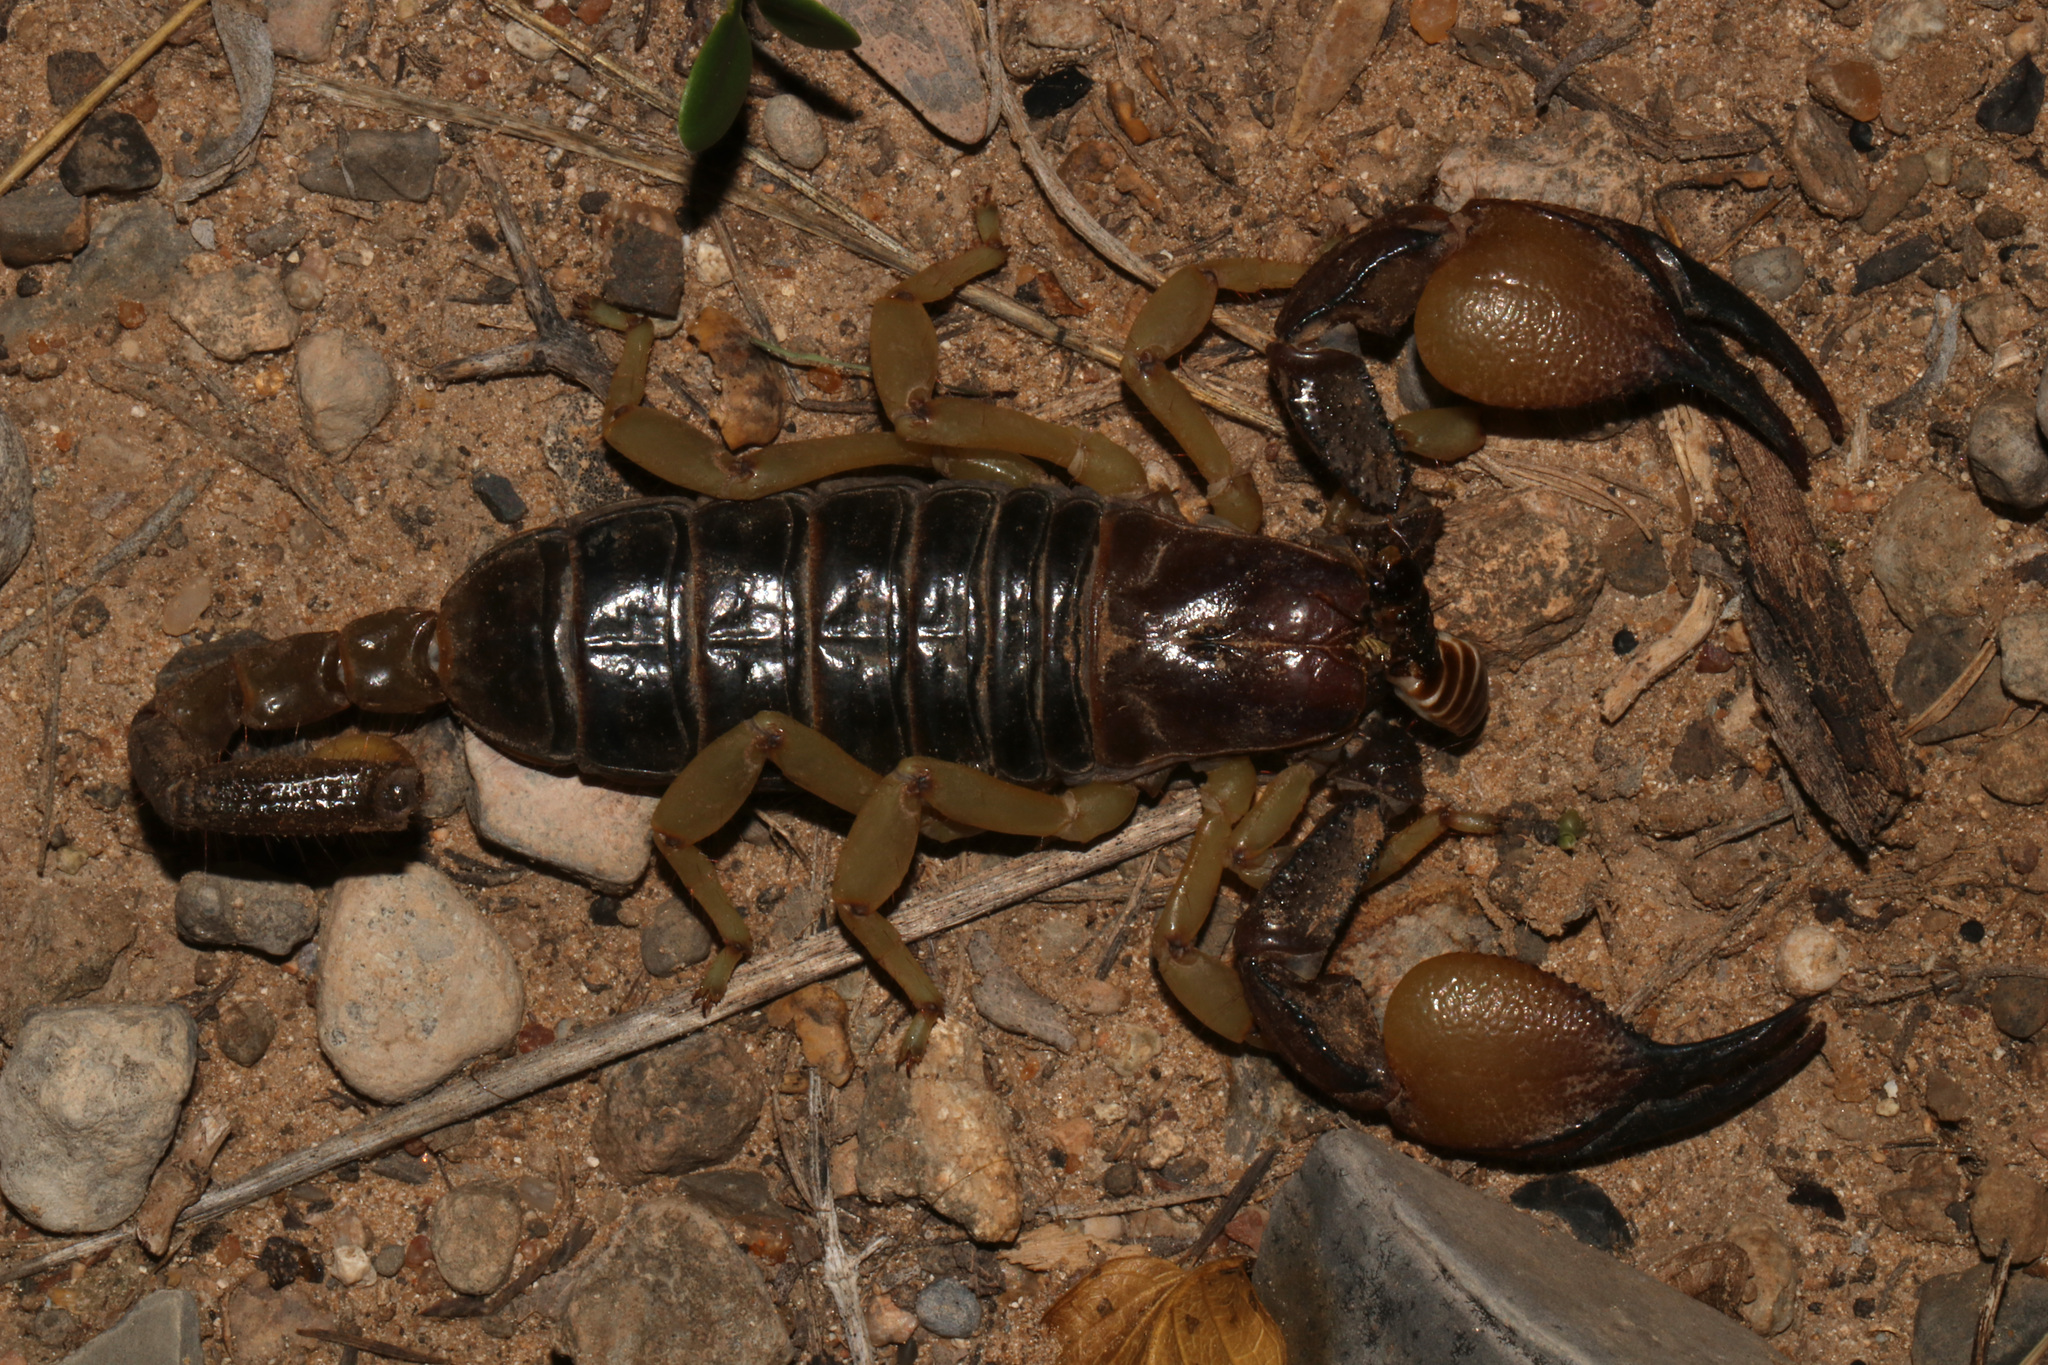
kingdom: Animalia
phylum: Arthropoda
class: Arachnida
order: Scorpiones
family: Scorpionidae
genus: Opistophthalmus
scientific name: Opistophthalmus carinatus
